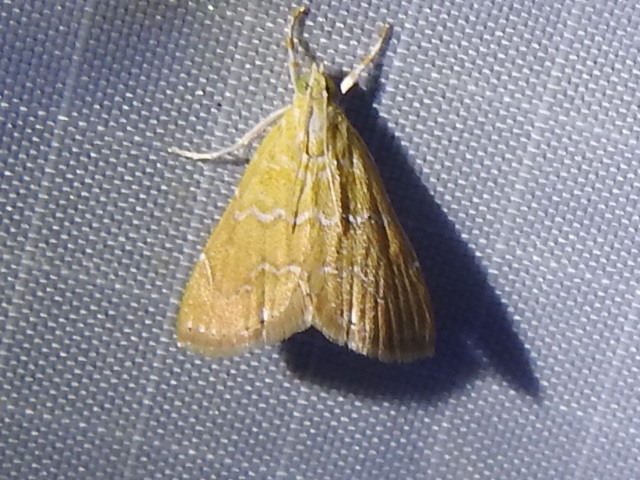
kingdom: Animalia
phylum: Arthropoda
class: Insecta
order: Lepidoptera
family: Crambidae
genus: Glaphyria
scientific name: Glaphyria sesquistrialis
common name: White-roped glaphyria
